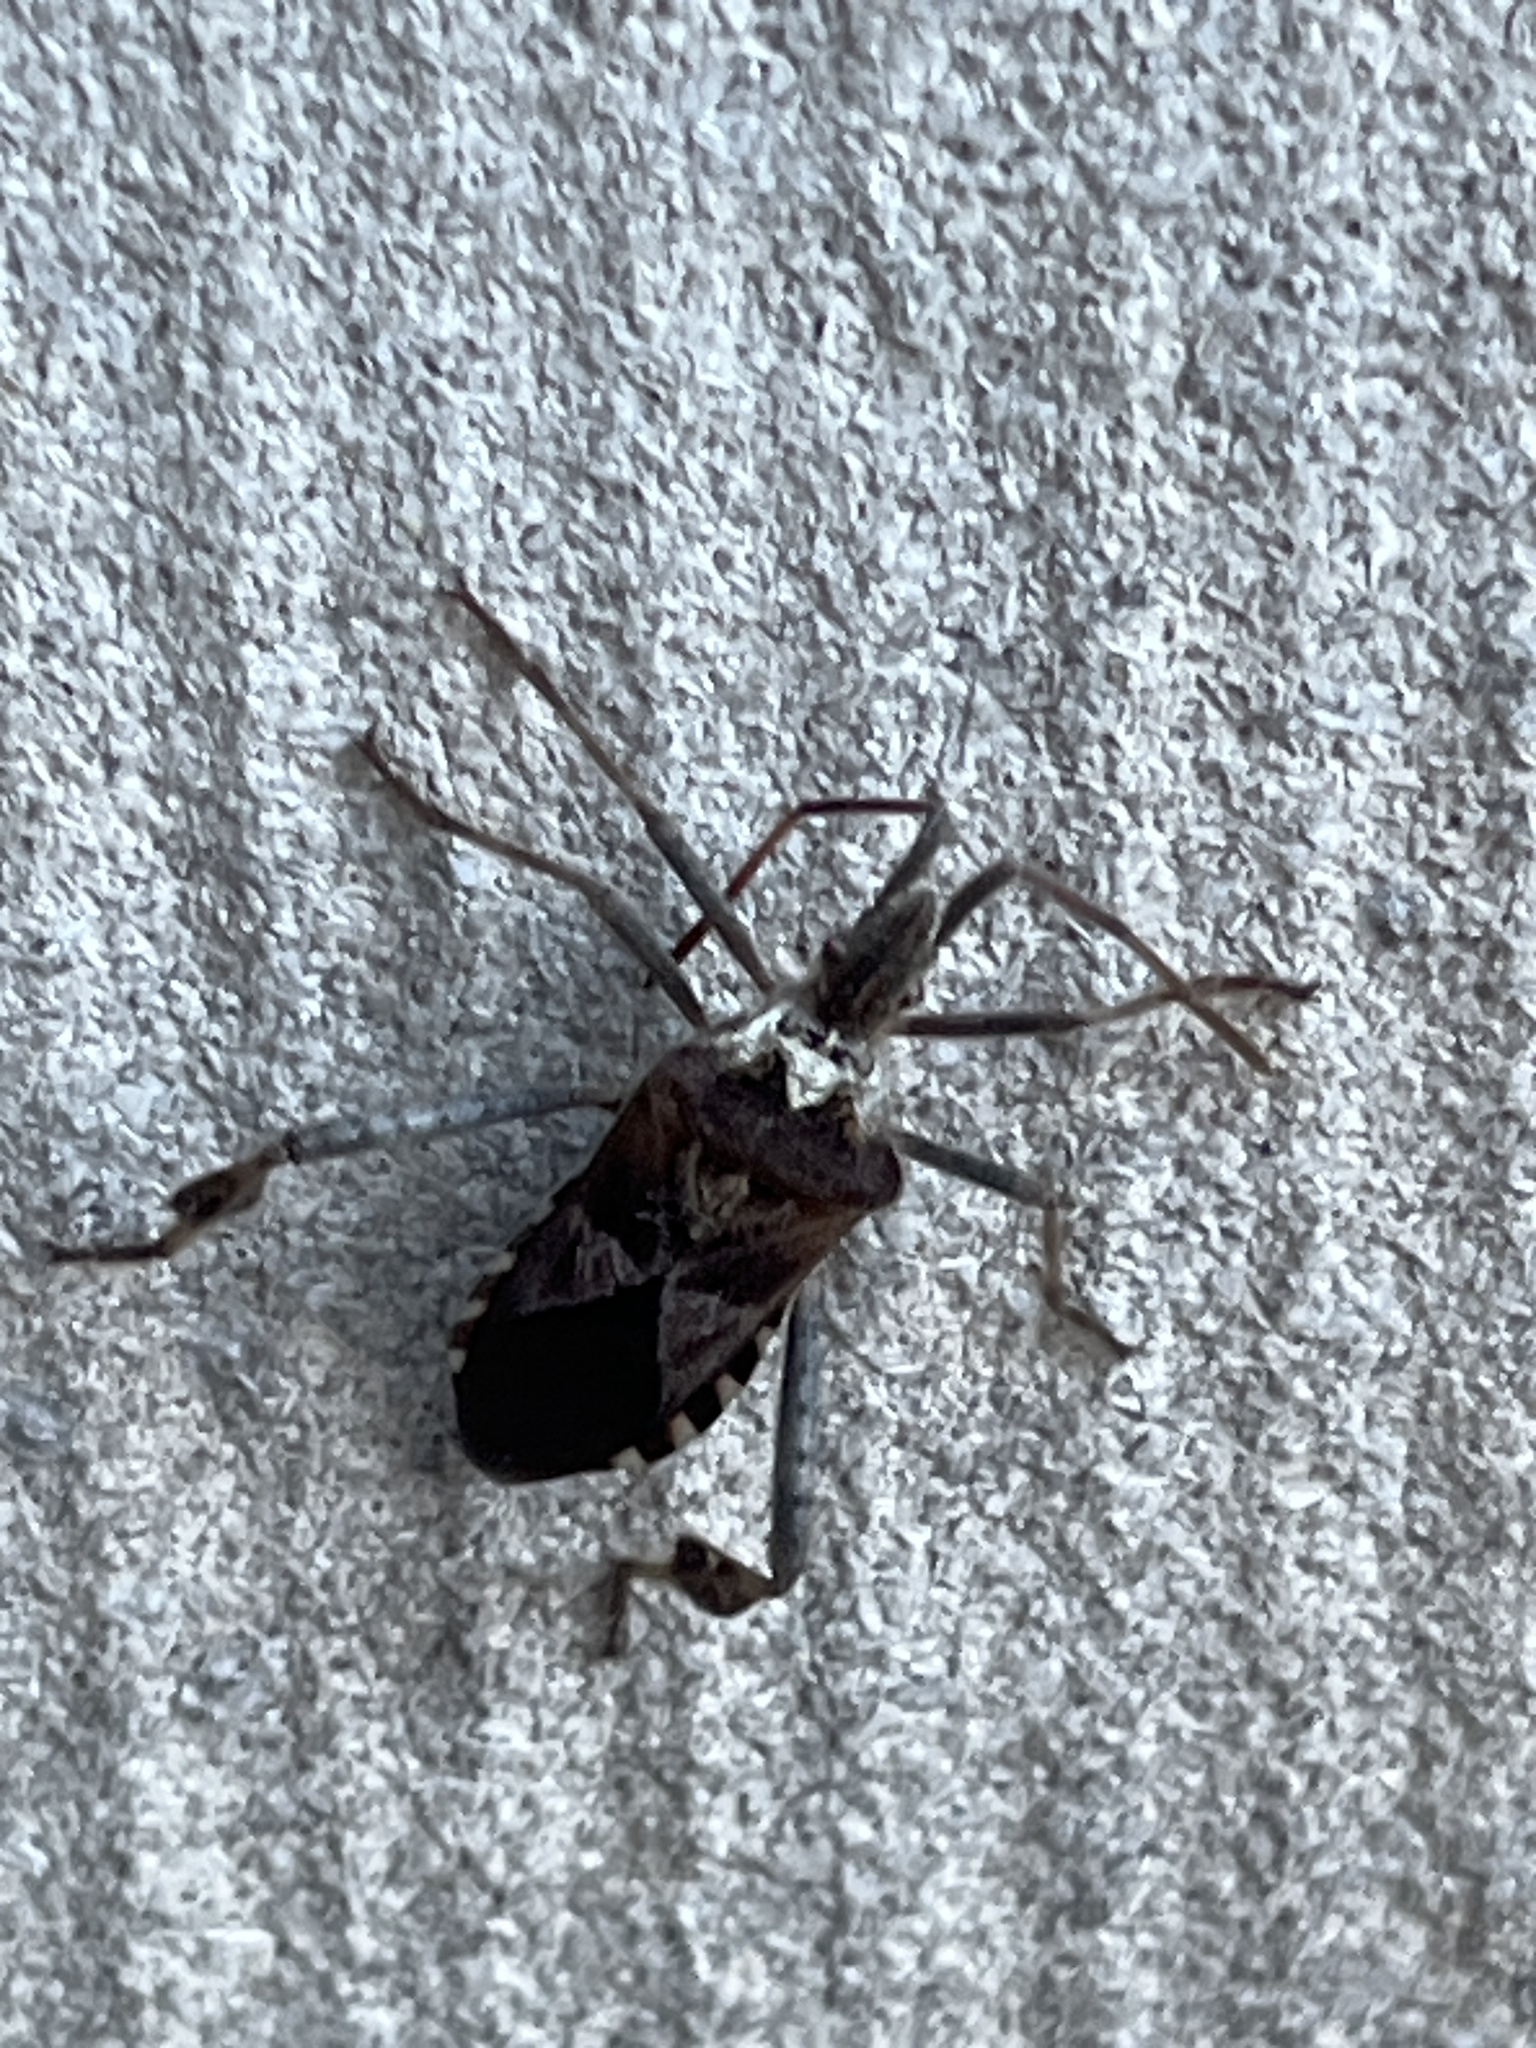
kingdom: Animalia
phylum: Arthropoda
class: Insecta
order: Hemiptera
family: Coreidae
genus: Leptoglossus
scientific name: Leptoglossus occidentalis
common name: Western conifer-seed bug
